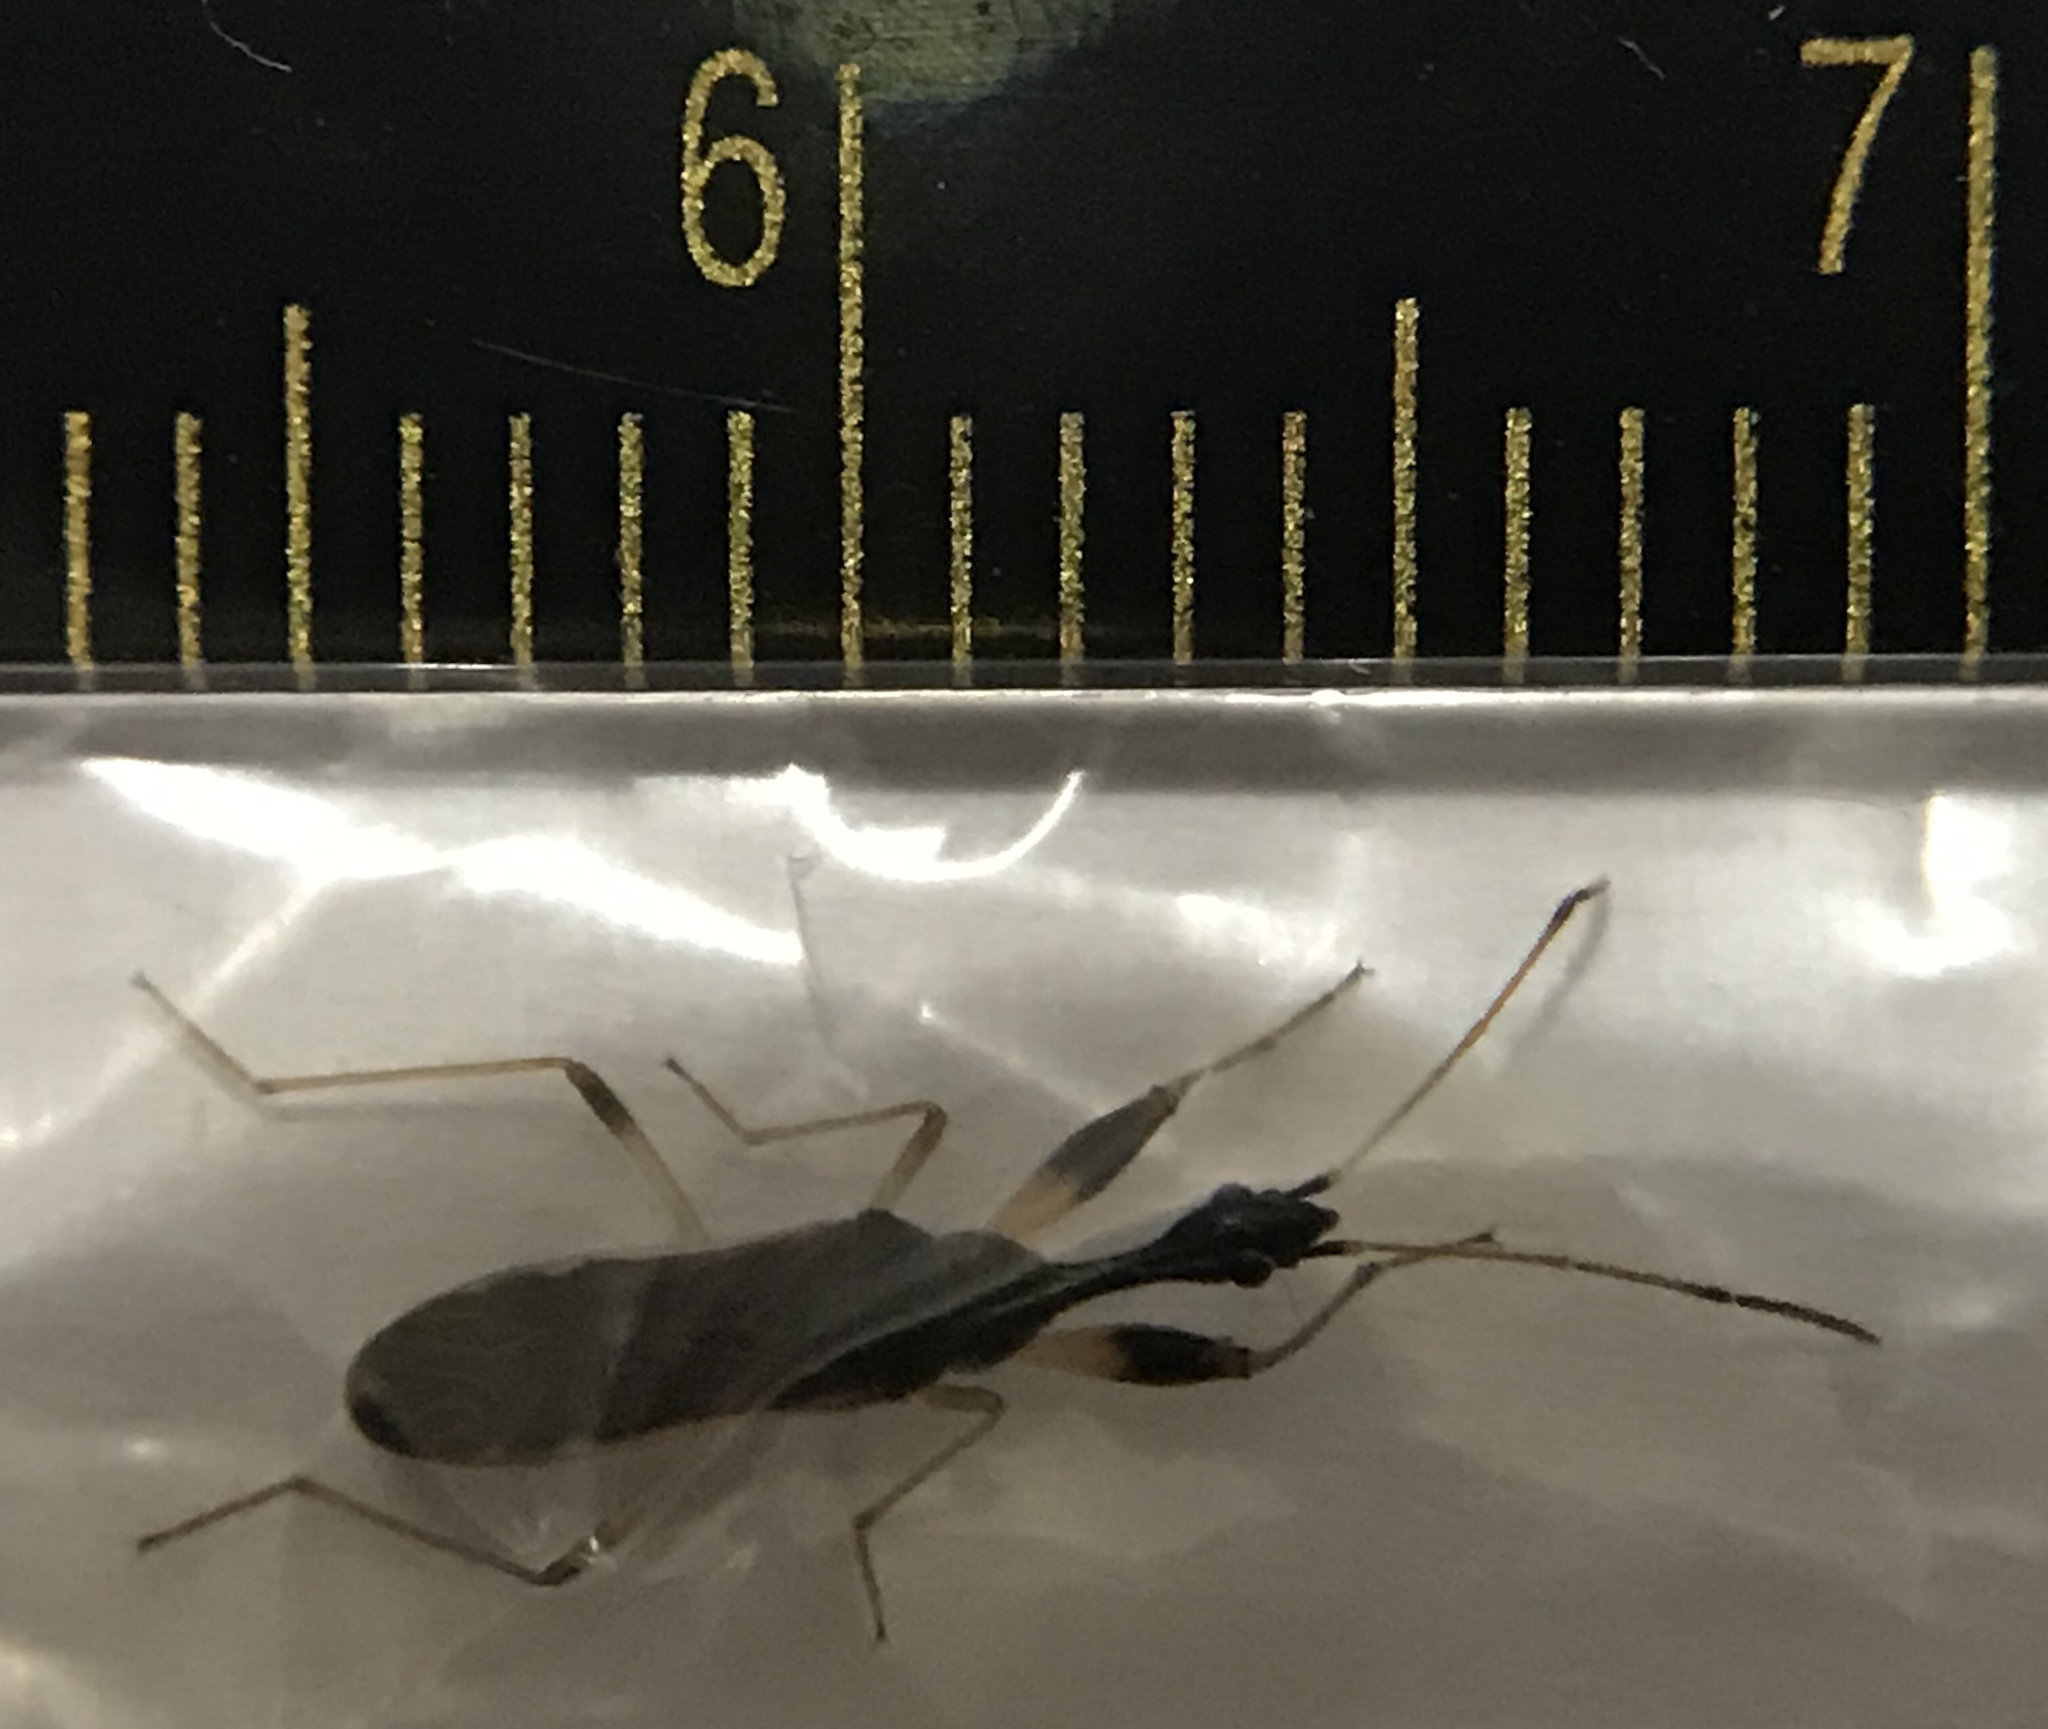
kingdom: Animalia
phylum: Arthropoda
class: Insecta
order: Hemiptera
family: Rhyparochromidae
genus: Myodocha
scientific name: Myodocha serripes
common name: Long-necked seed bug
